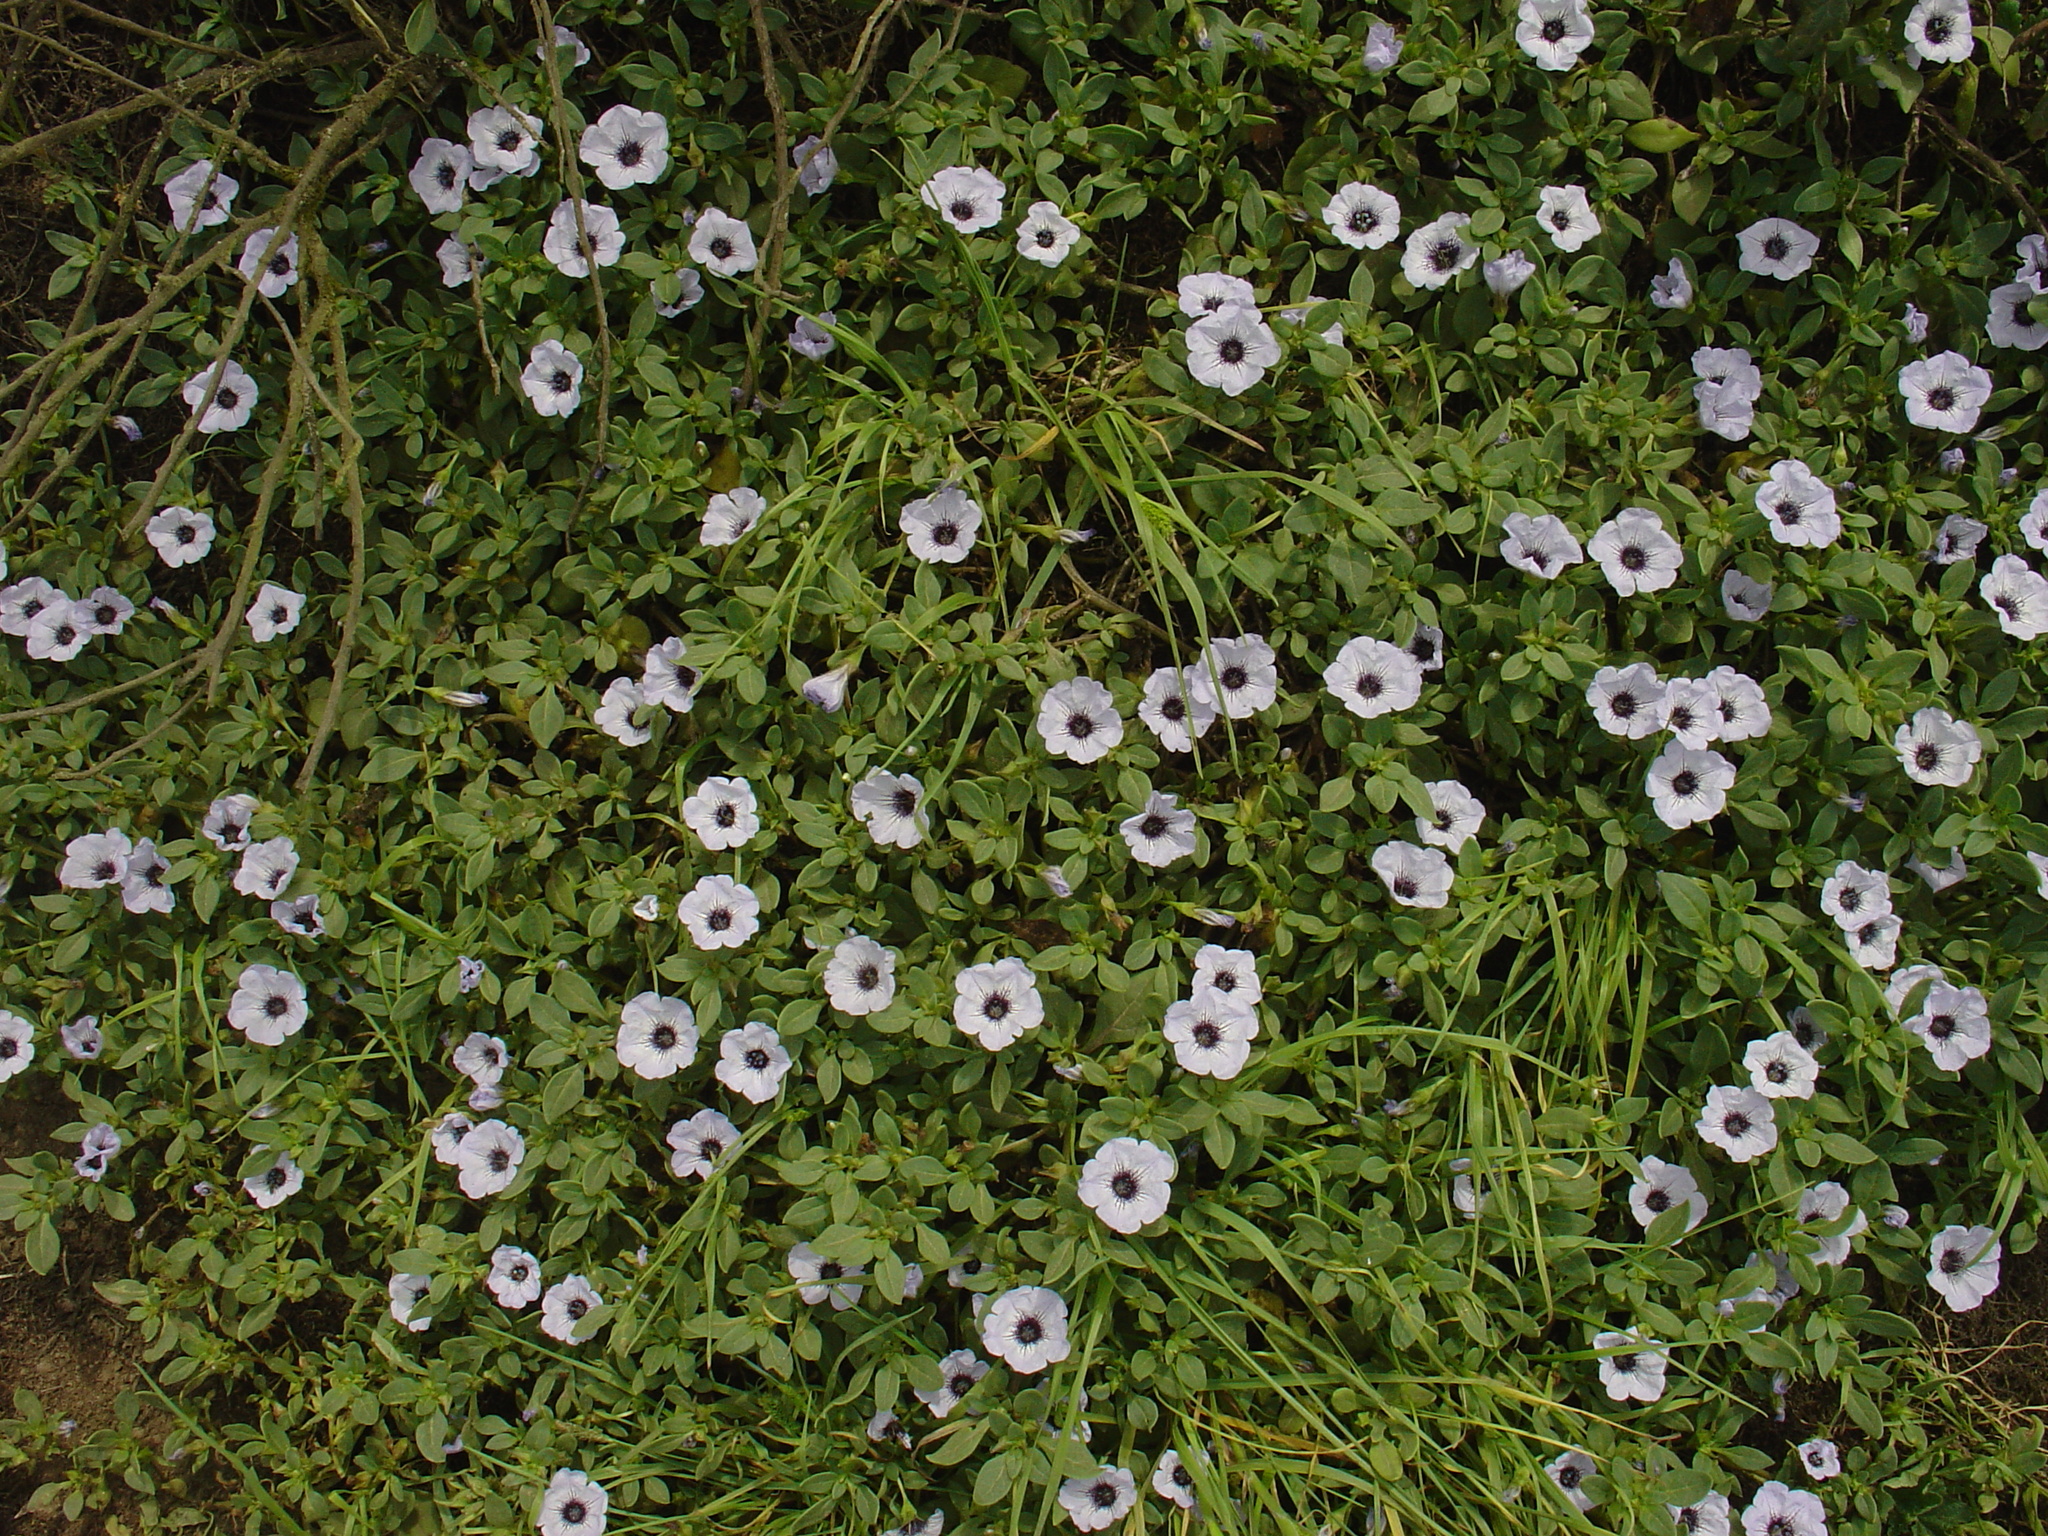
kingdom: Plantae
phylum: Tracheophyta
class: Magnoliopsida
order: Solanales
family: Solanaceae
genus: Nolana
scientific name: Nolana humifusa
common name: Trailing chilean-bellflower
